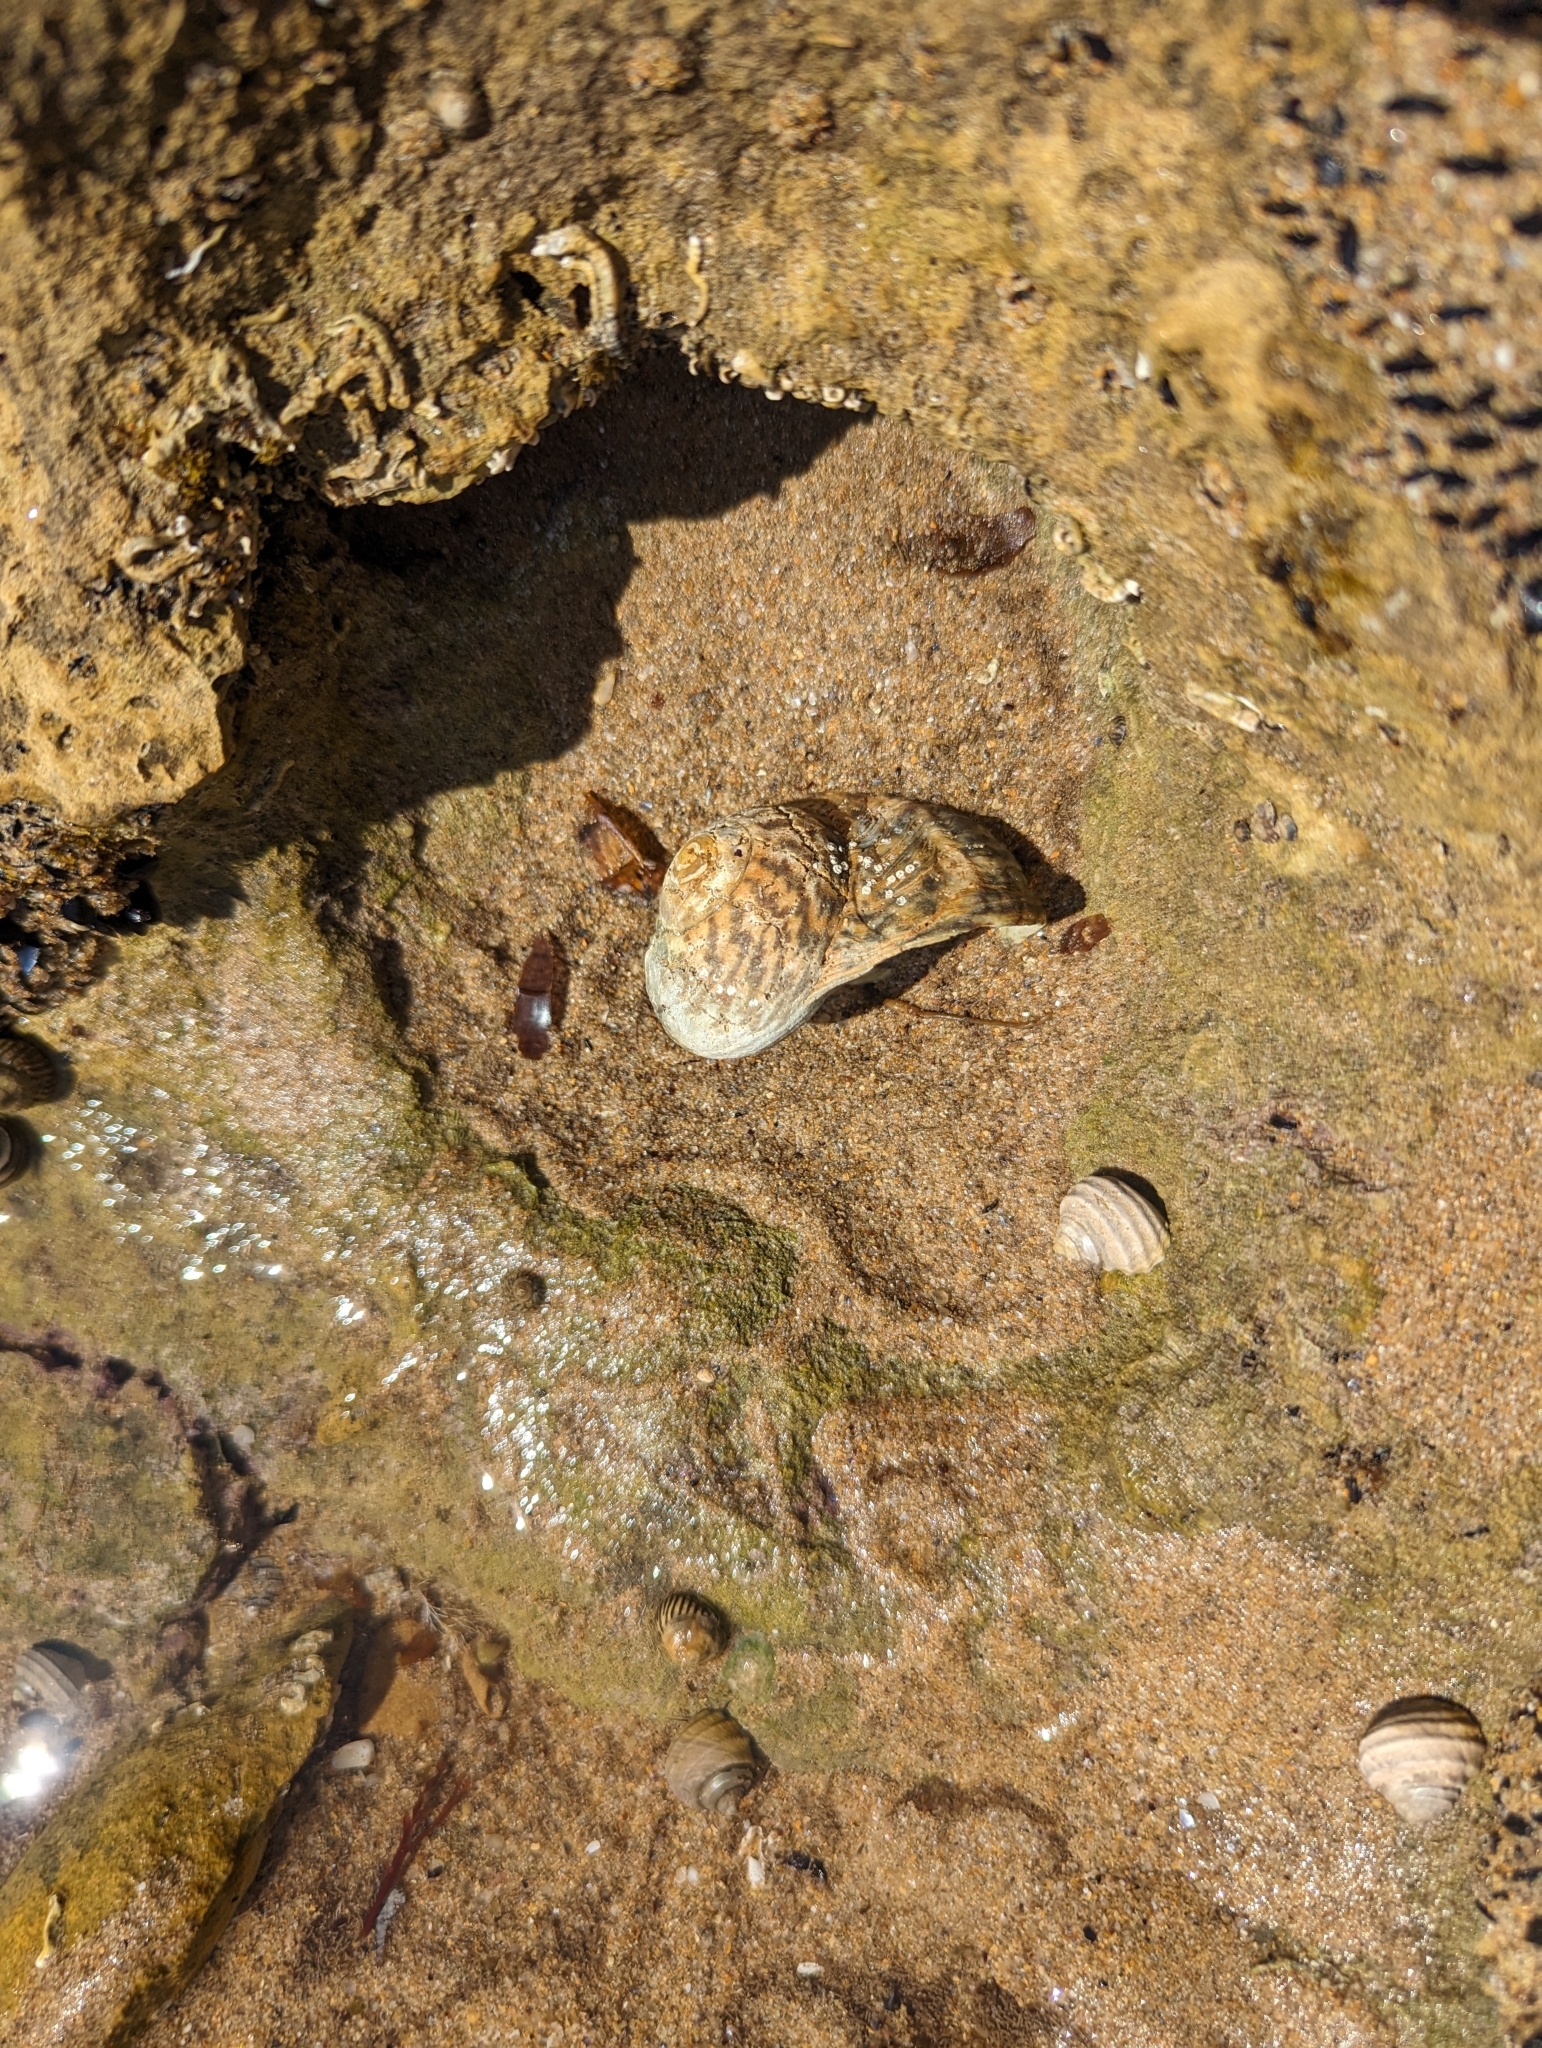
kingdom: Animalia
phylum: Mollusca
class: Gastropoda
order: Trochida
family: Turbinidae
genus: Lunella
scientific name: Lunella undulata
